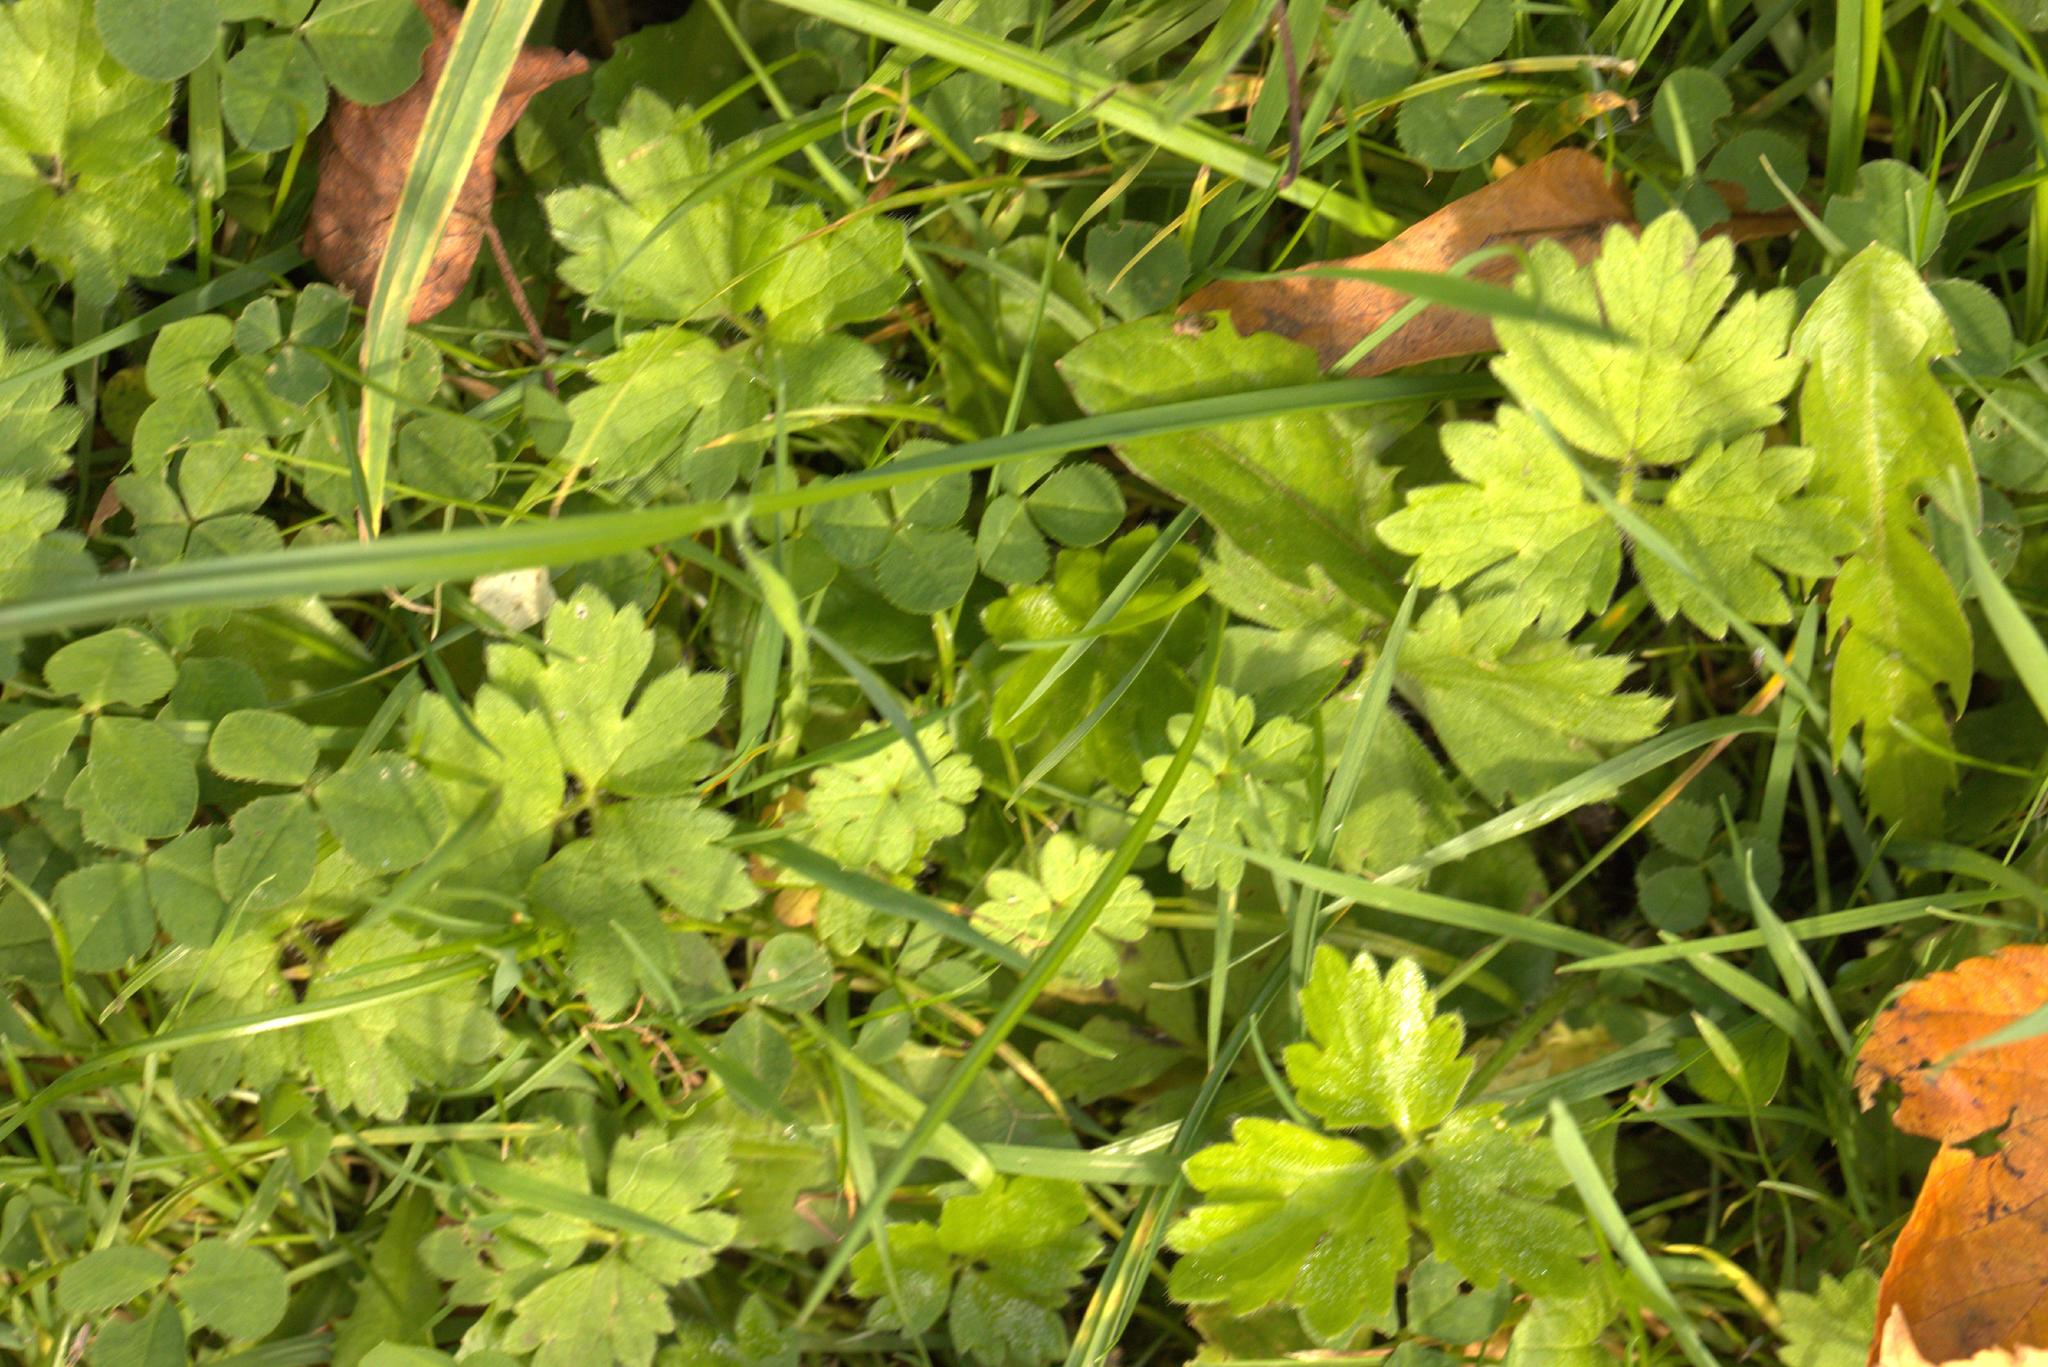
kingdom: Plantae
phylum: Tracheophyta
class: Magnoliopsida
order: Ranunculales
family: Ranunculaceae
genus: Ranunculus
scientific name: Ranunculus repens
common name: Creeping buttercup
